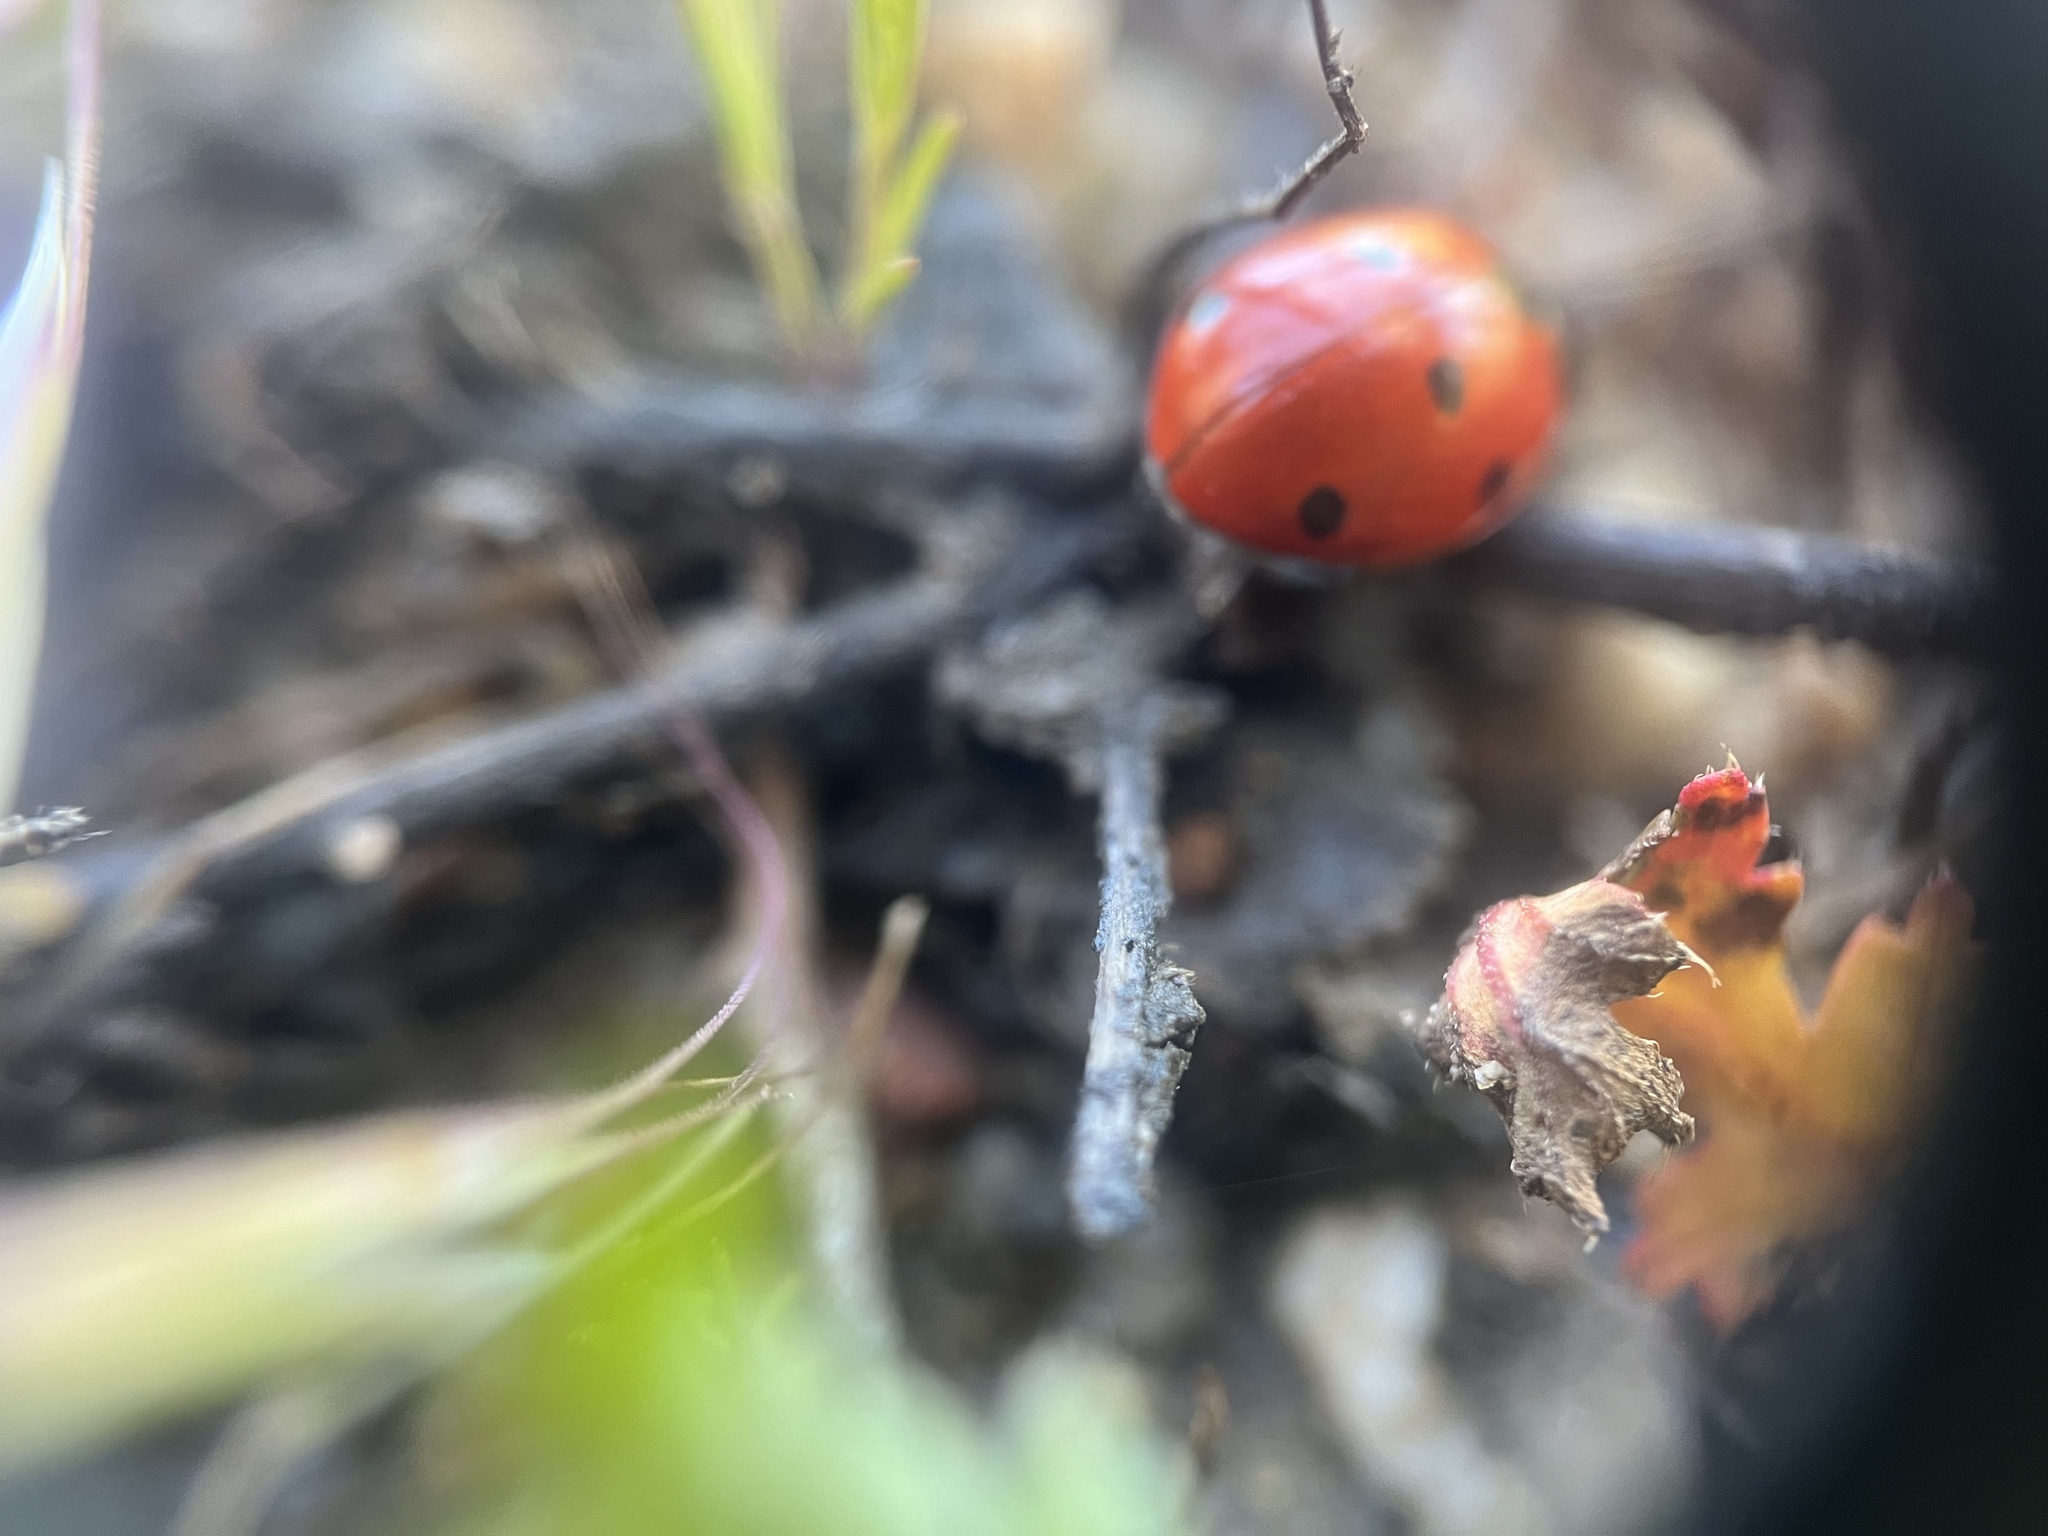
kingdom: Animalia
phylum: Arthropoda
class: Insecta
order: Coleoptera
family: Coccinellidae
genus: Coccinella
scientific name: Coccinella septempunctata
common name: Sevenspotted lady beetle
